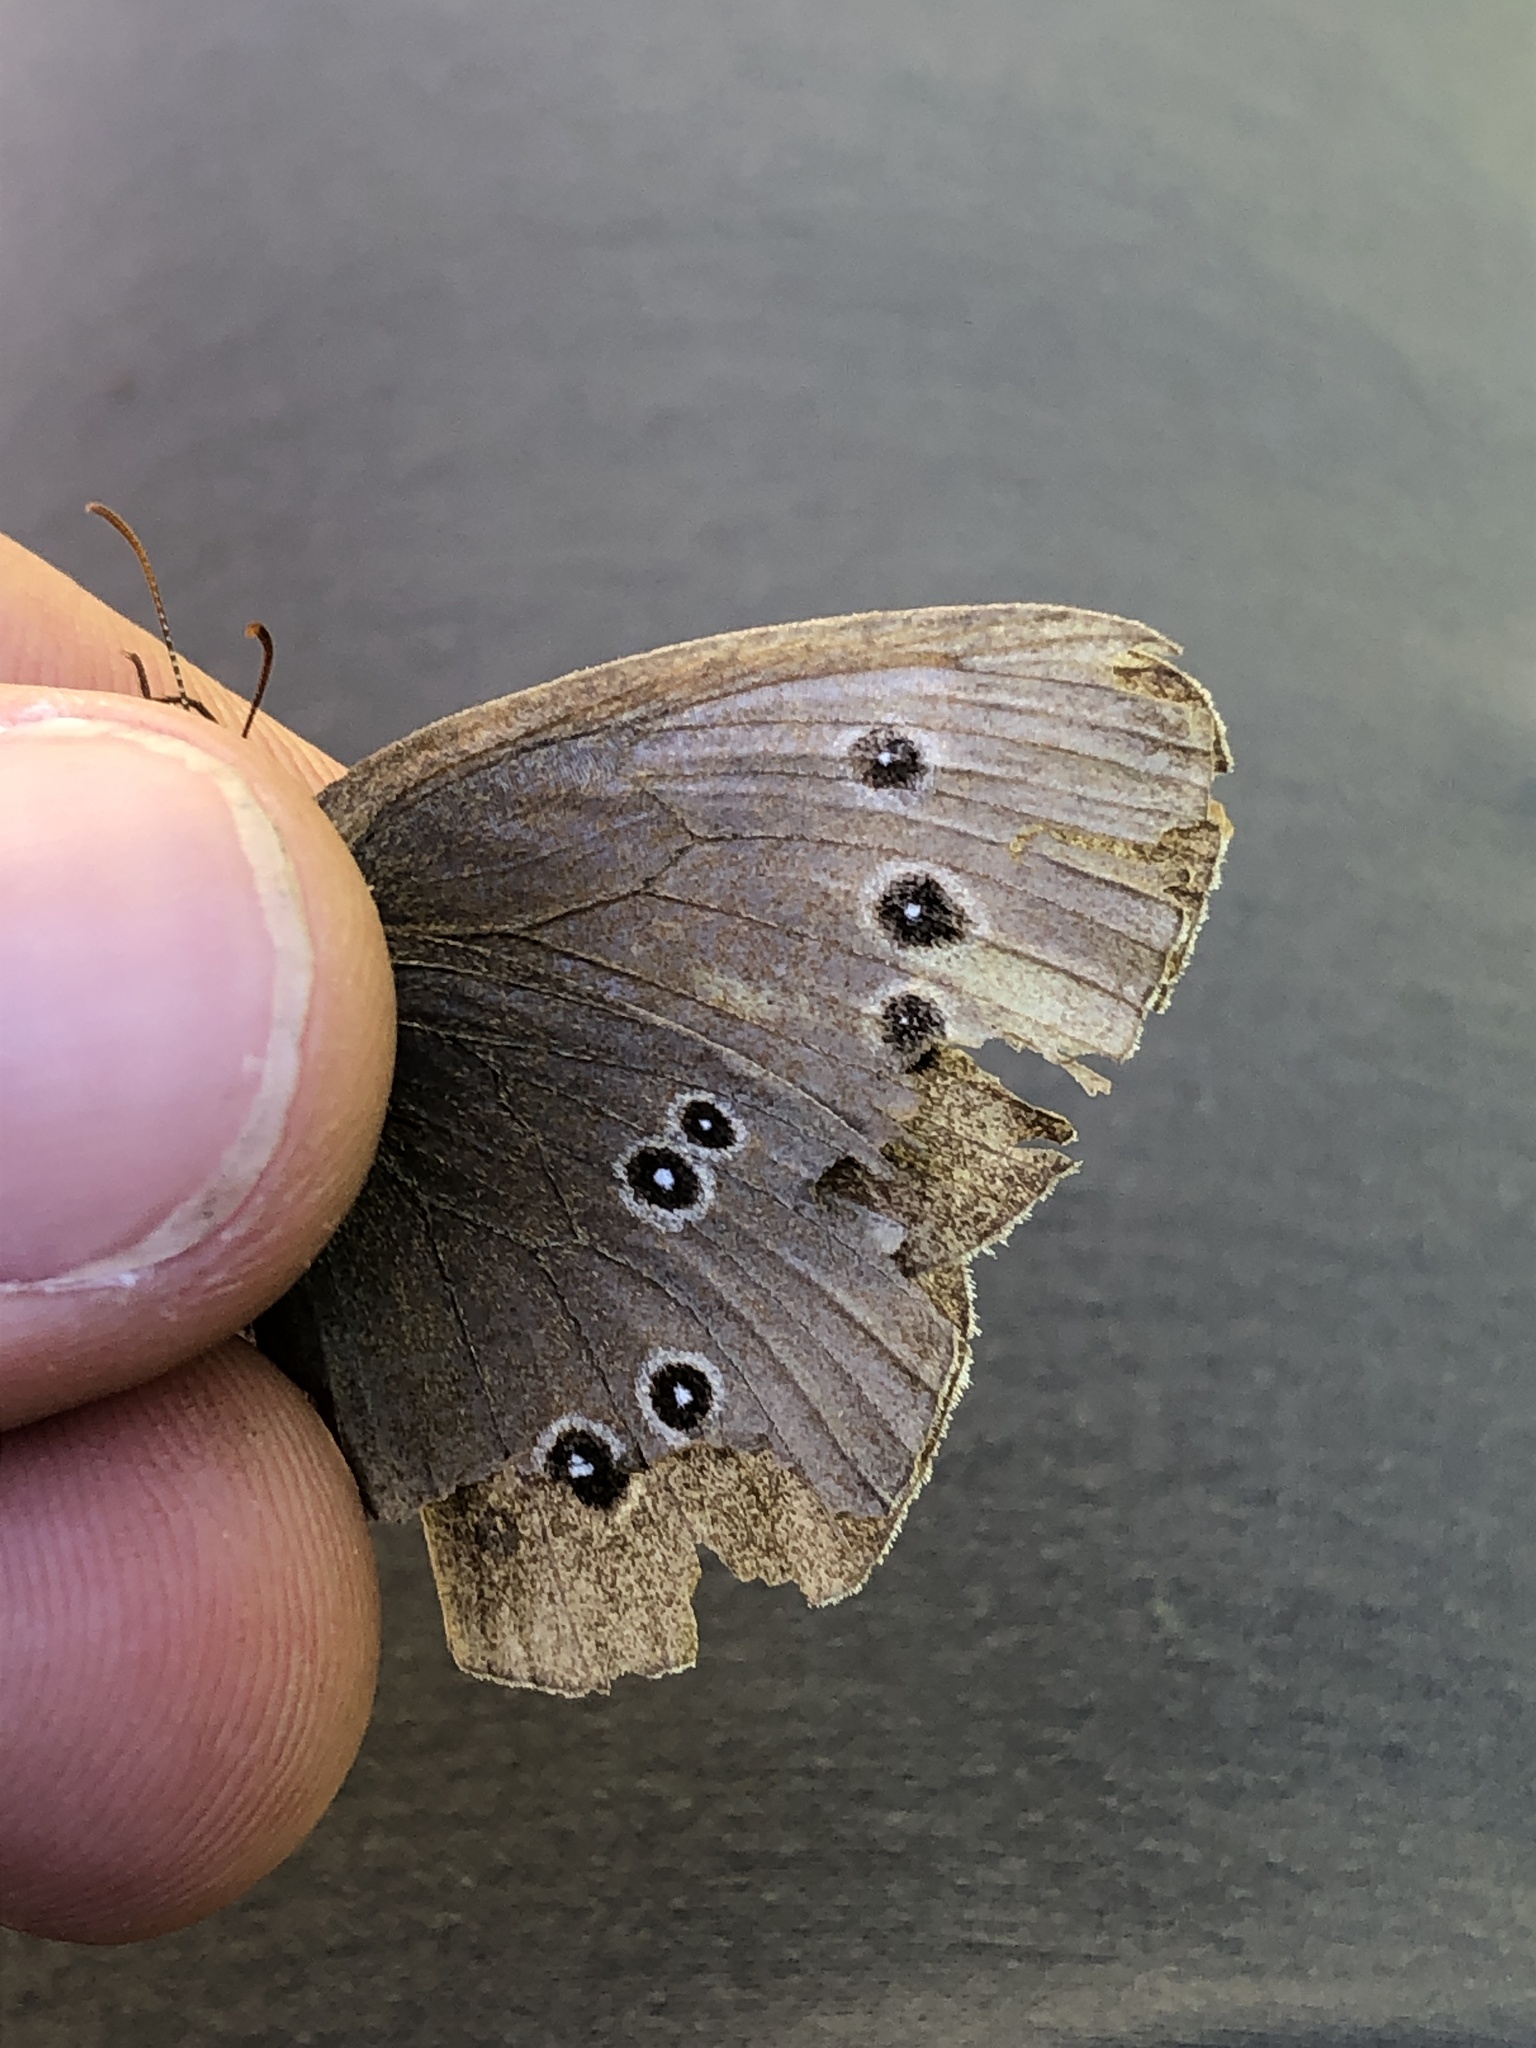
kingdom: Animalia
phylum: Arthropoda
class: Insecta
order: Lepidoptera
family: Nymphalidae
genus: Aphantopus
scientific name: Aphantopus hyperantus
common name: Ringlet
